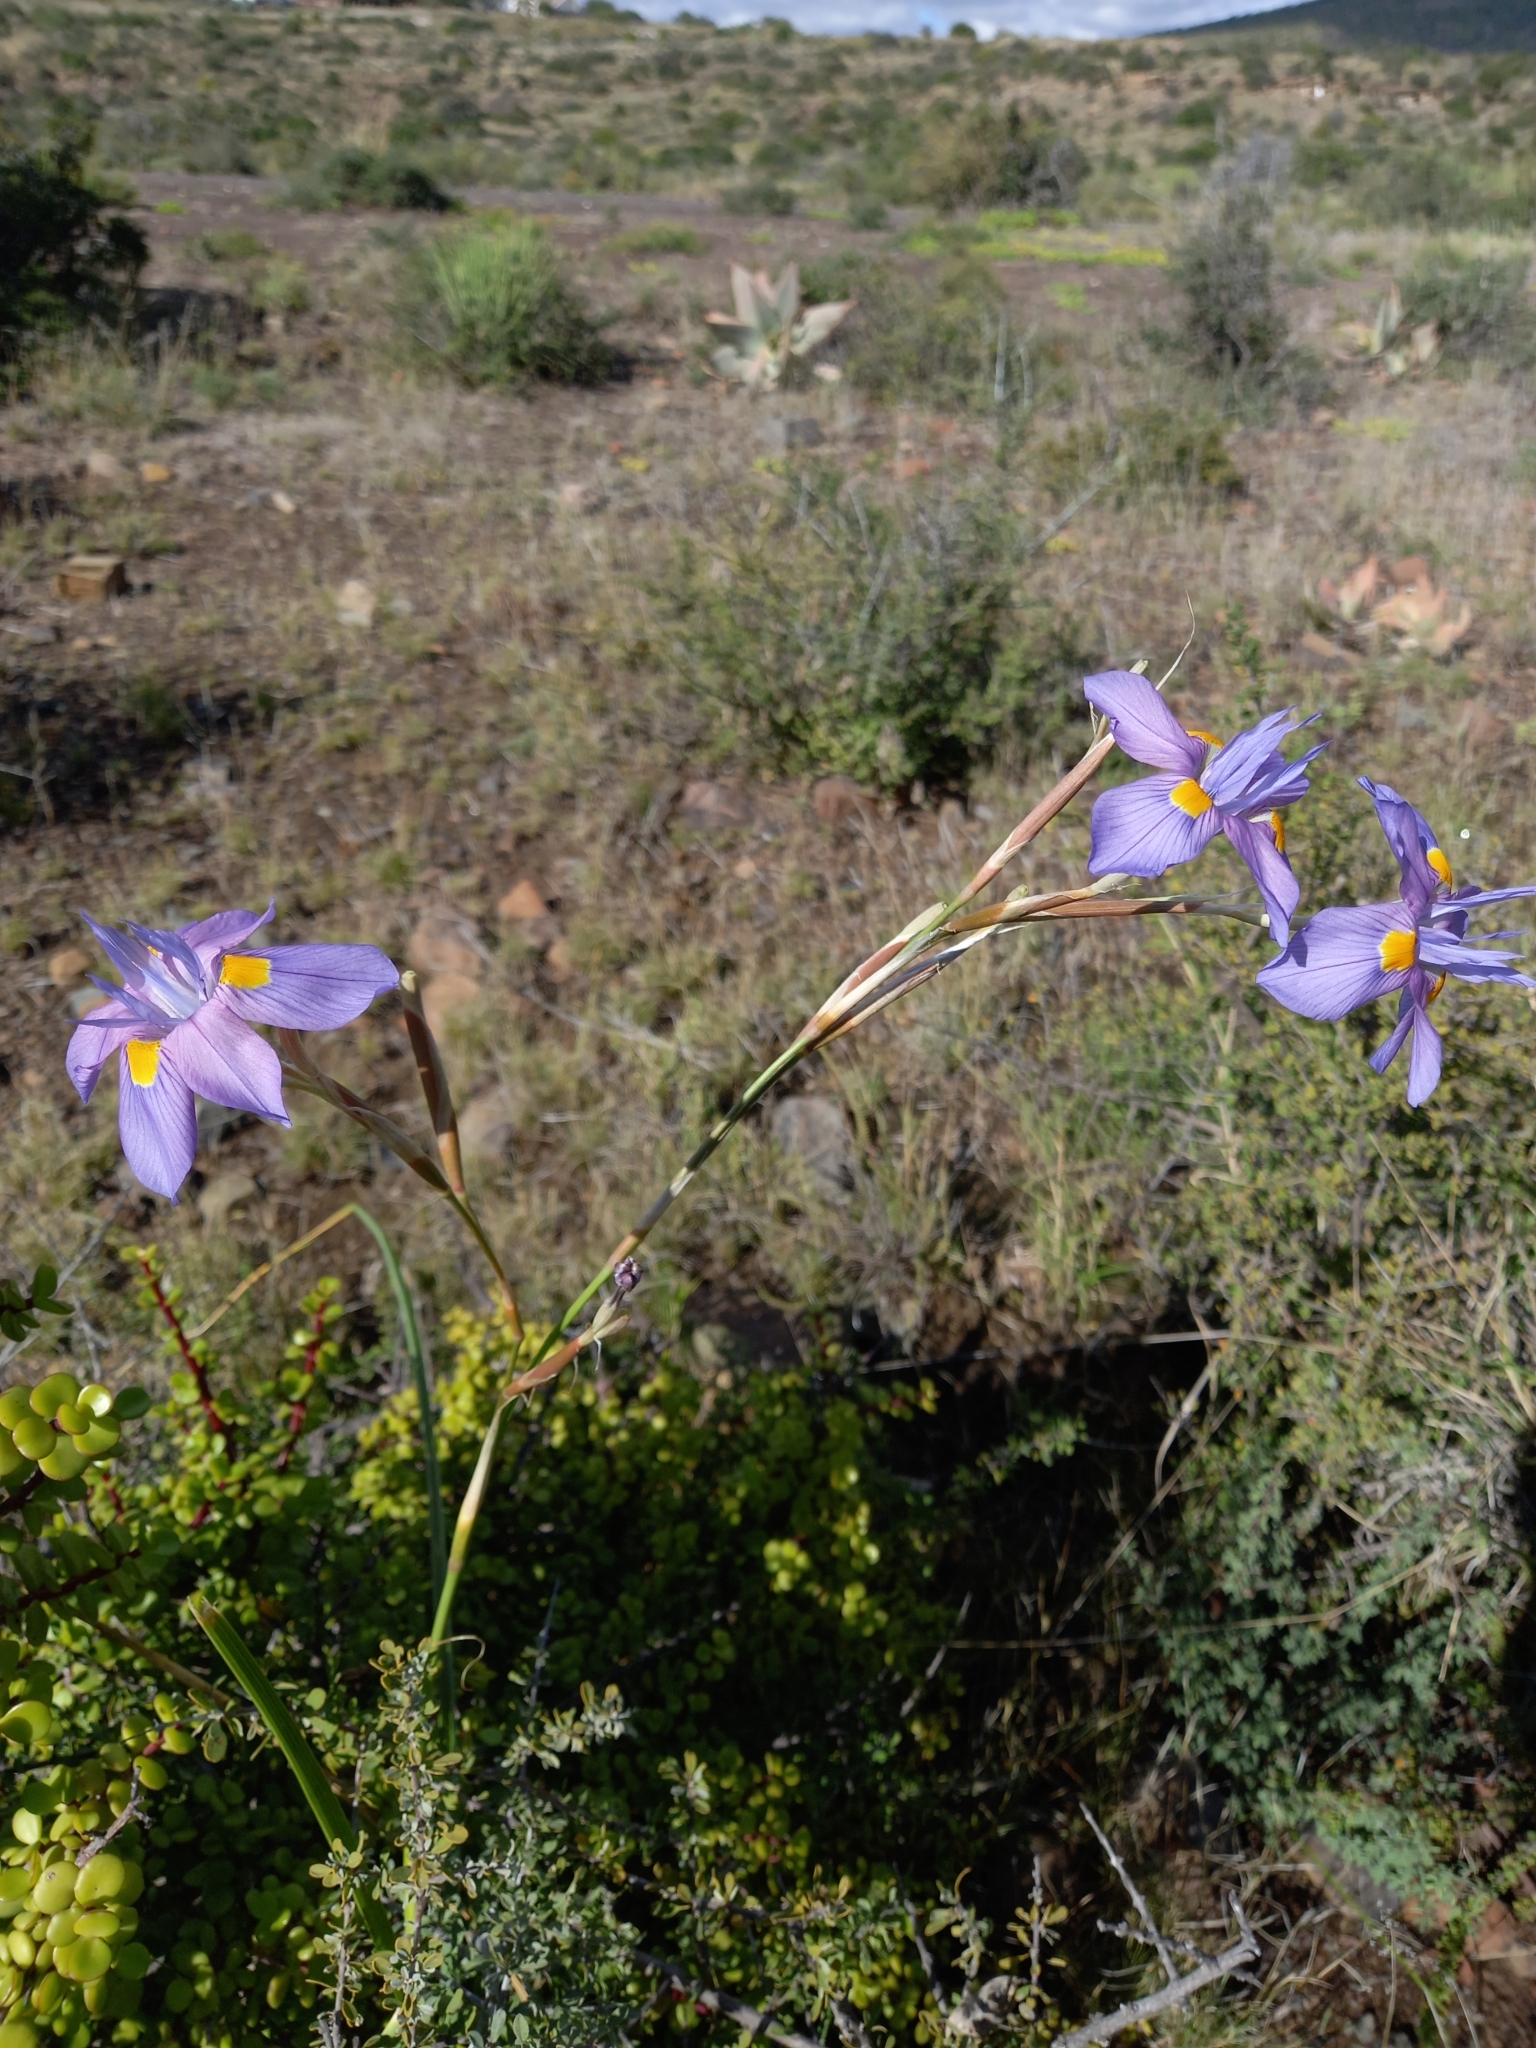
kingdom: Plantae
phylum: Tracheophyta
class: Liliopsida
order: Asparagales
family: Iridaceae
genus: Moraea
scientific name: Moraea polystachya
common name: Blue-tulip
